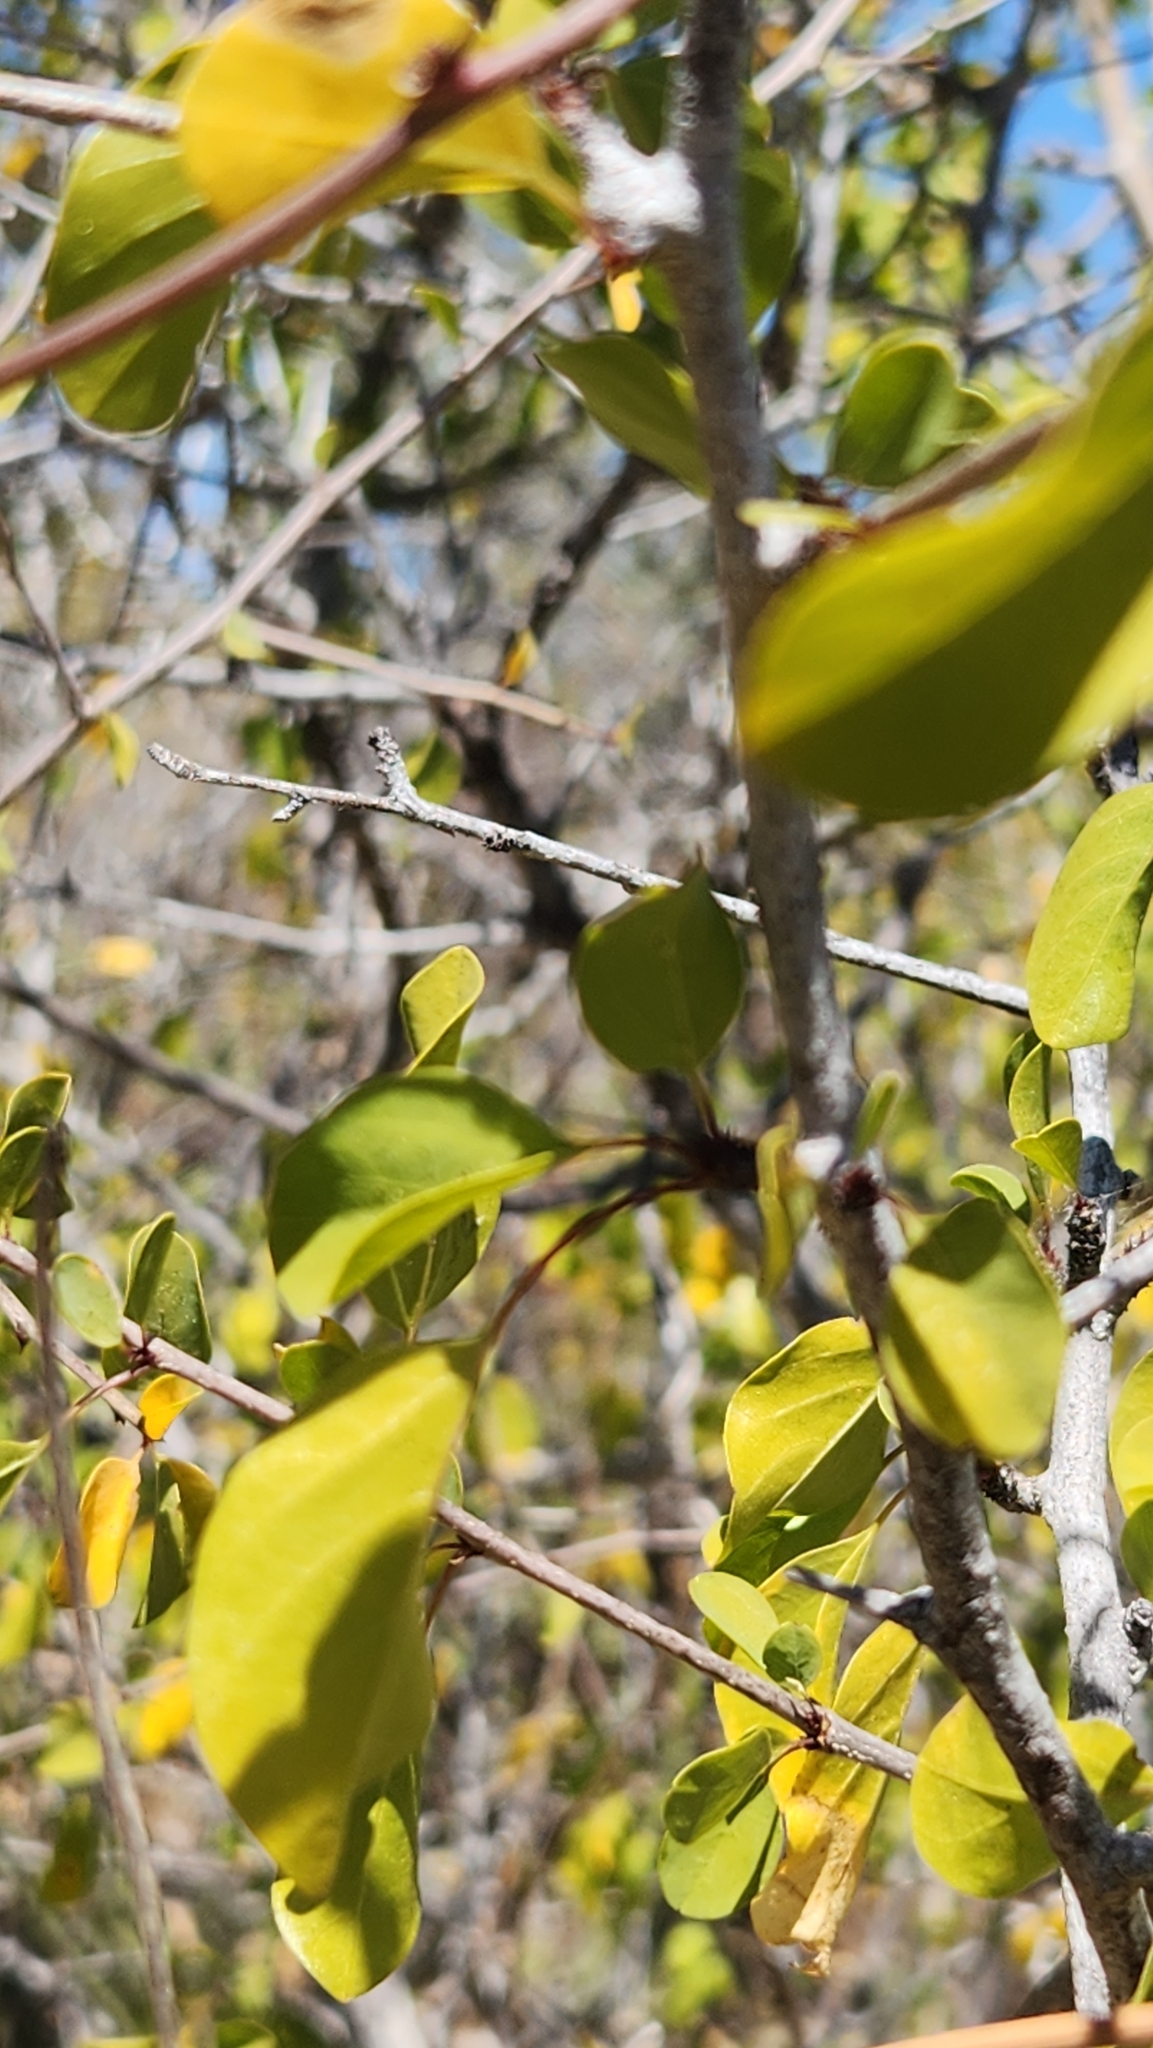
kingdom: Plantae
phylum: Tracheophyta
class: Magnoliopsida
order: Rosales
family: Rhamnaceae
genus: Colubrina
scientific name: Colubrina viridis
